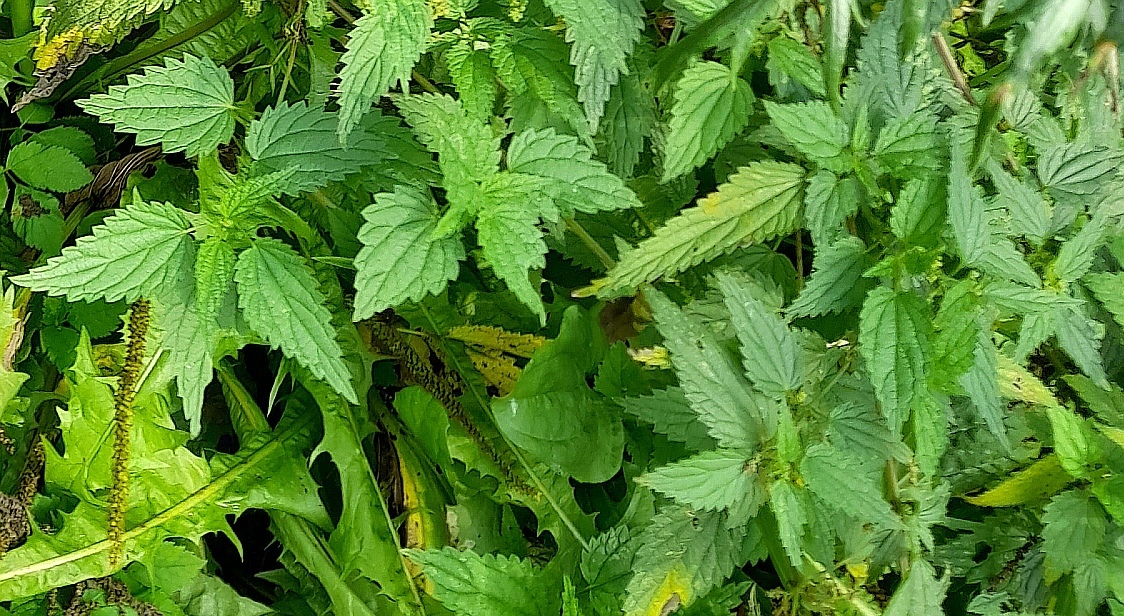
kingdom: Plantae
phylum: Tracheophyta
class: Magnoliopsida
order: Rosales
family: Urticaceae
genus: Urtica
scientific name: Urtica dioica
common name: Common nettle
